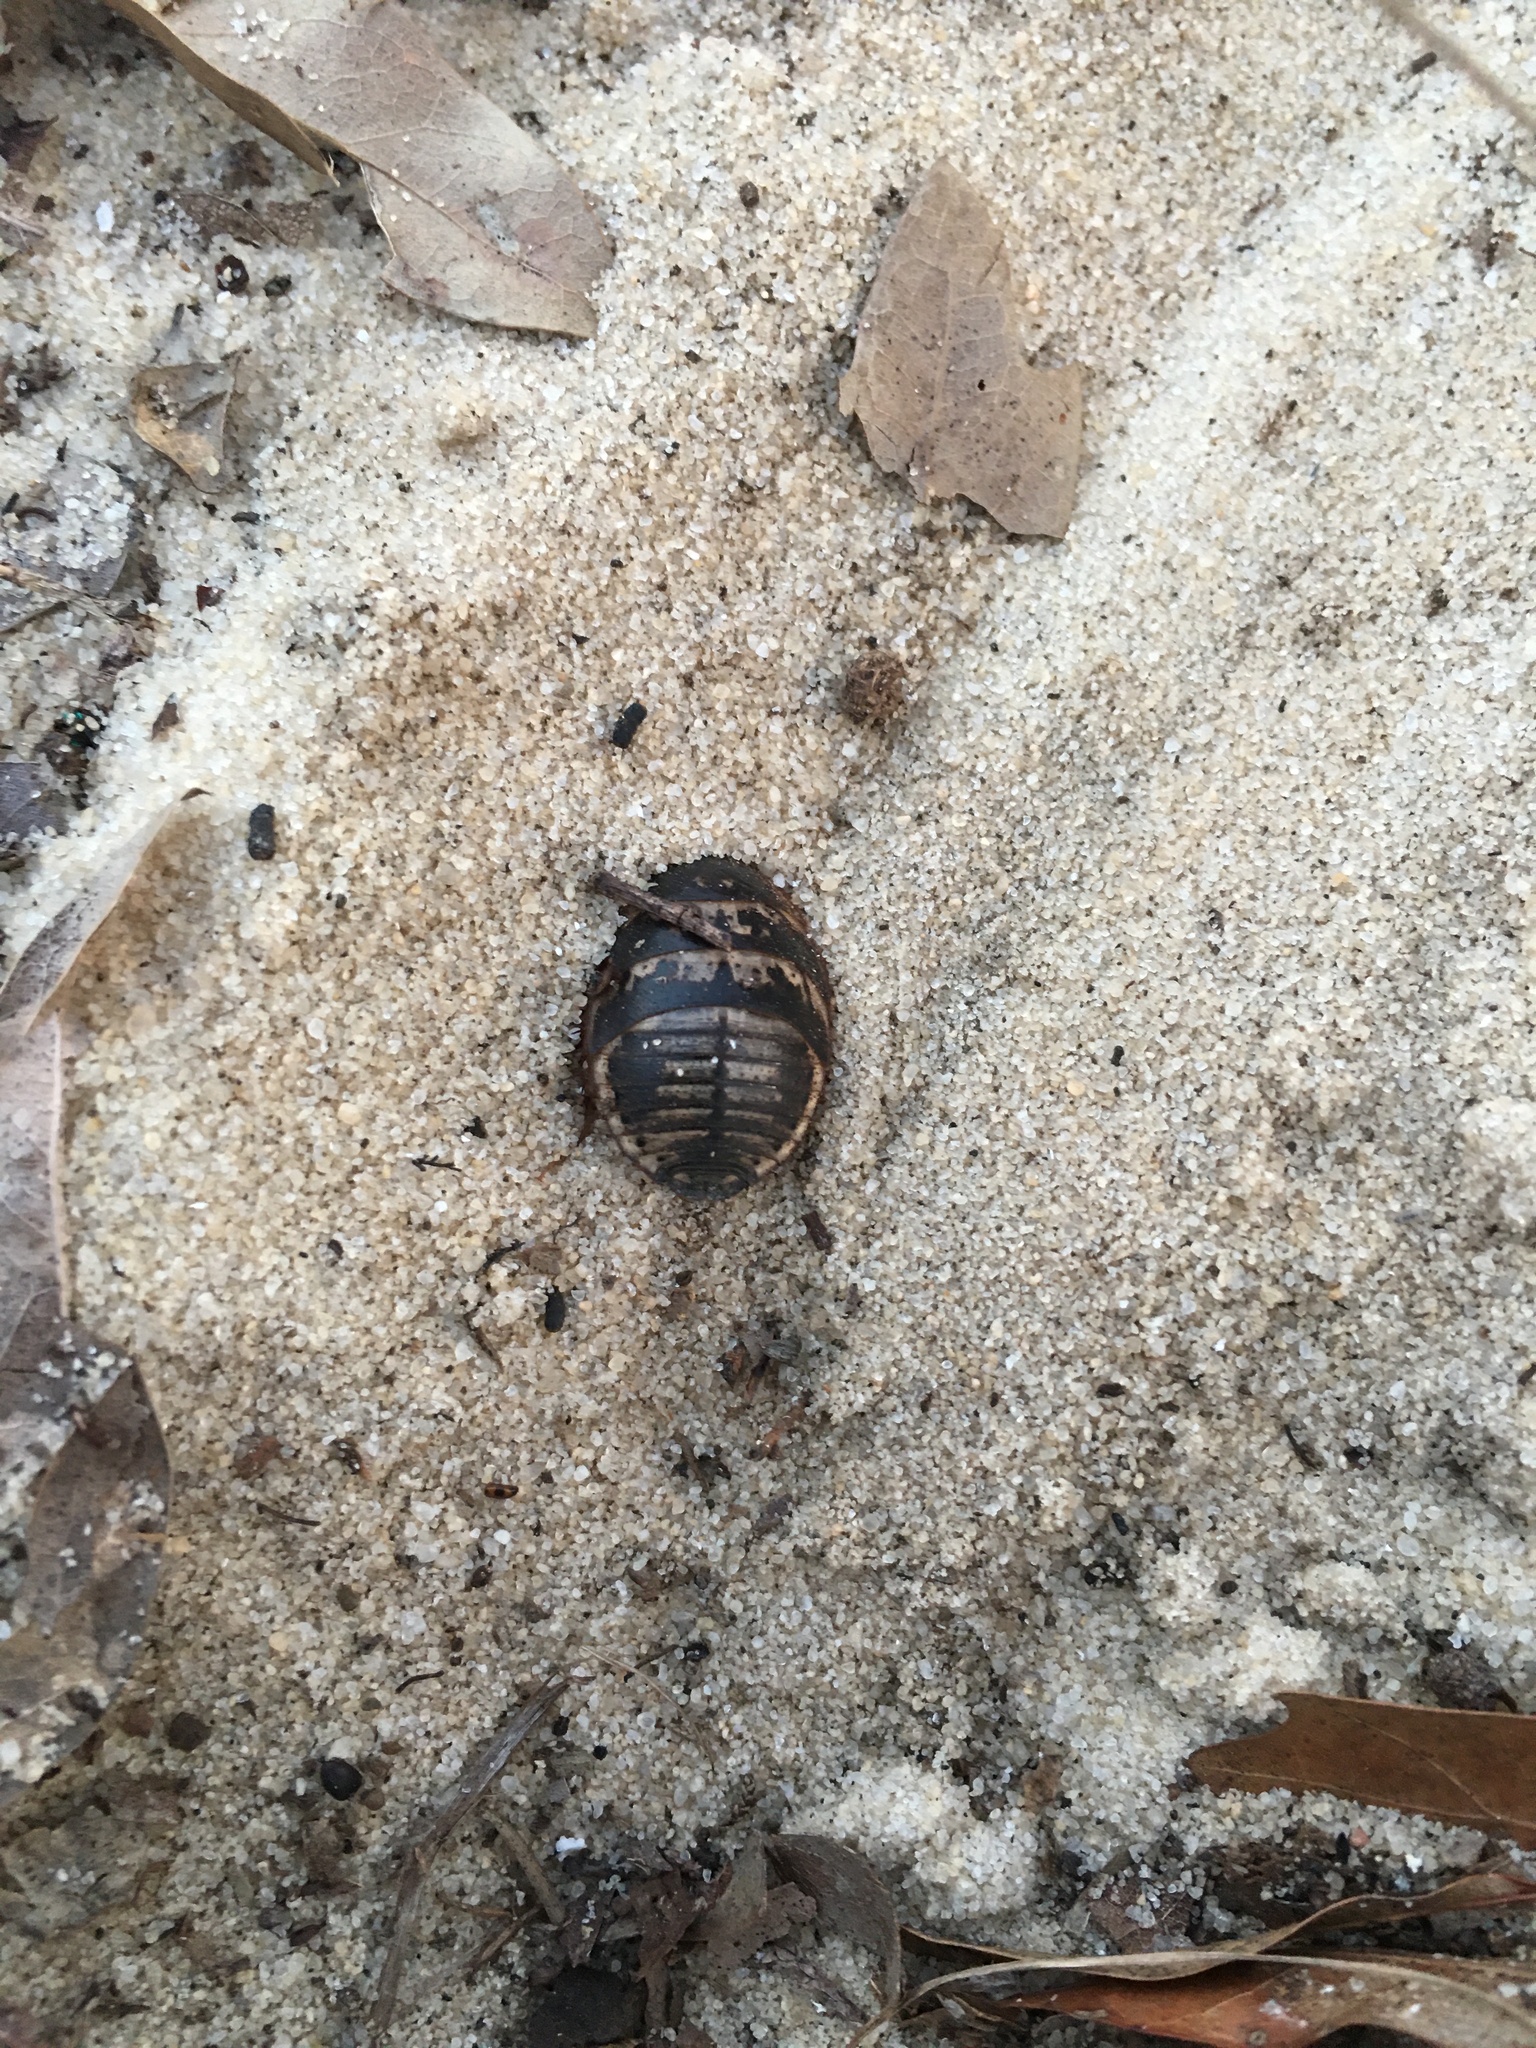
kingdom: Animalia
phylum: Arthropoda
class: Insecta
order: Blattodea
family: Corydiidae
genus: Arenivaga
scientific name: Arenivaga floridensis
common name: Florida sand cockroach
